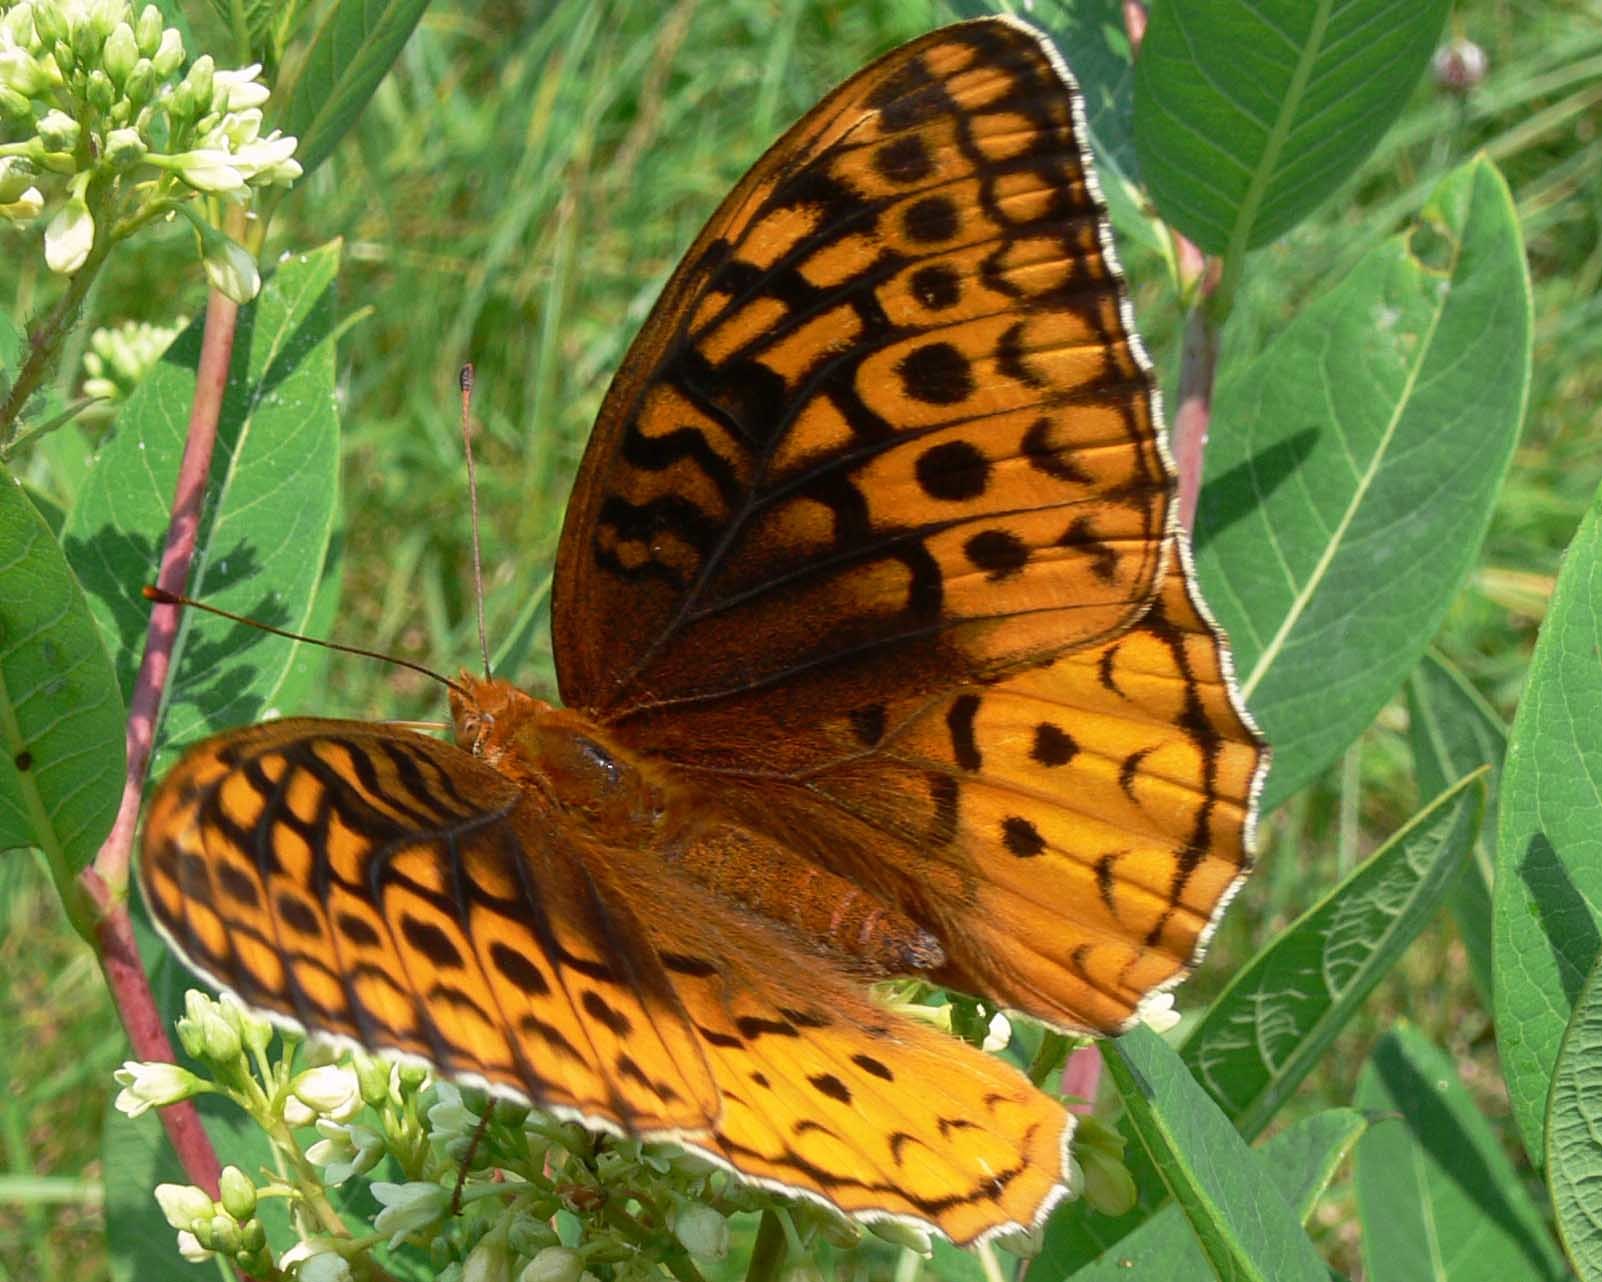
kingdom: Animalia
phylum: Arthropoda
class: Insecta
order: Lepidoptera
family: Nymphalidae
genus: Speyeria
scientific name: Speyeria cybele
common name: Great spangled fritillary
